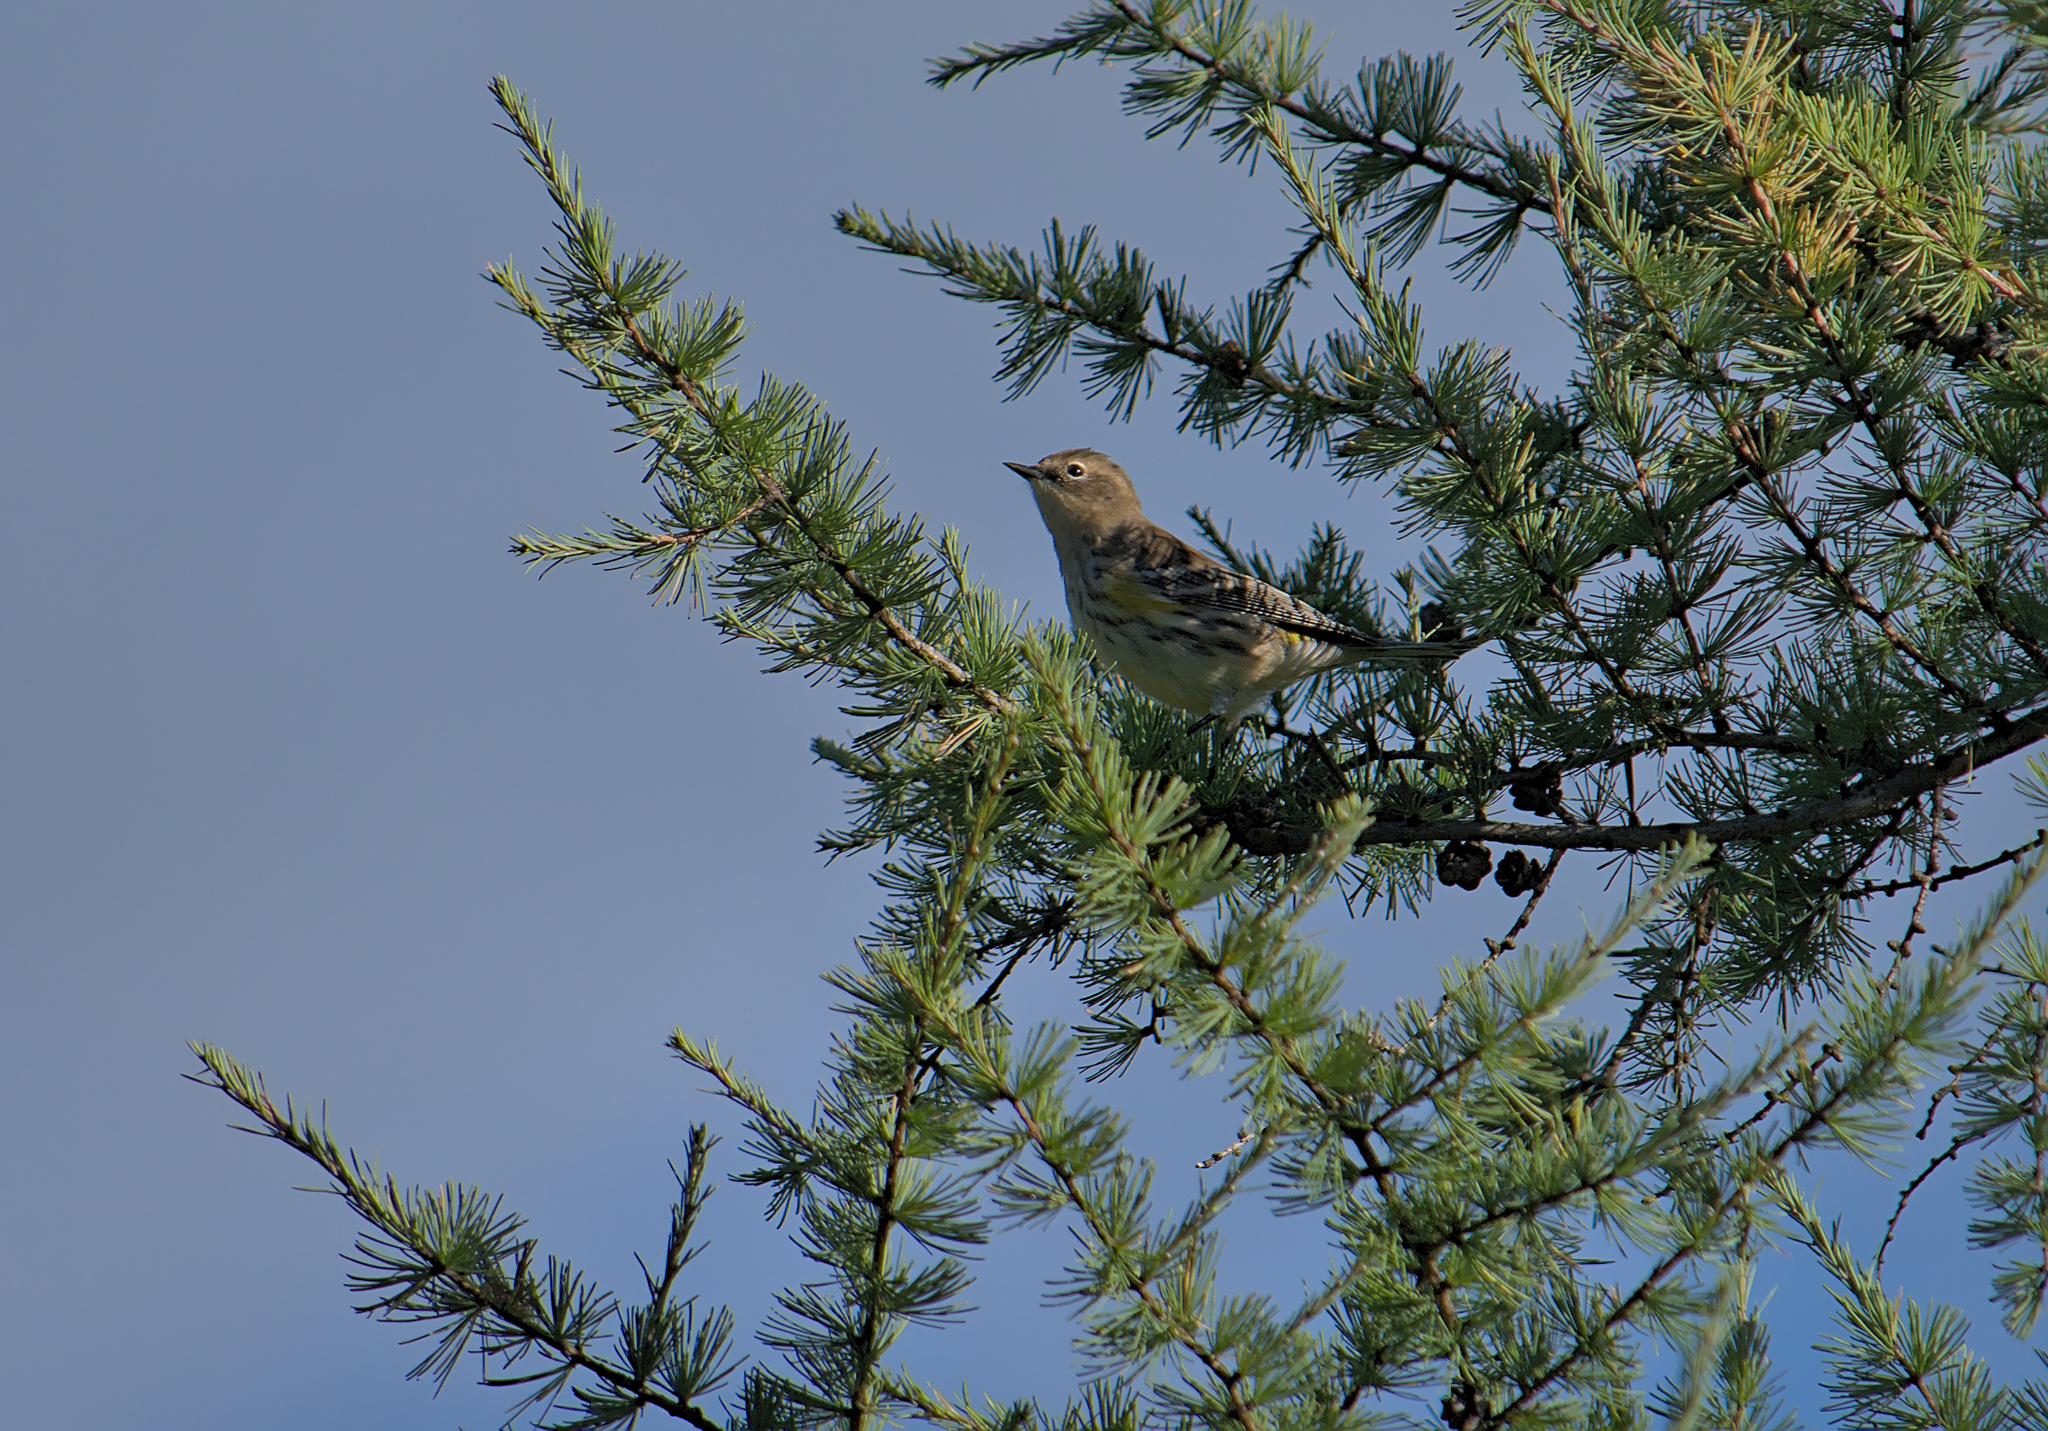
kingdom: Animalia
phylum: Chordata
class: Aves
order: Passeriformes
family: Parulidae
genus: Setophaga
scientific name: Setophaga coronata
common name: Myrtle warbler
